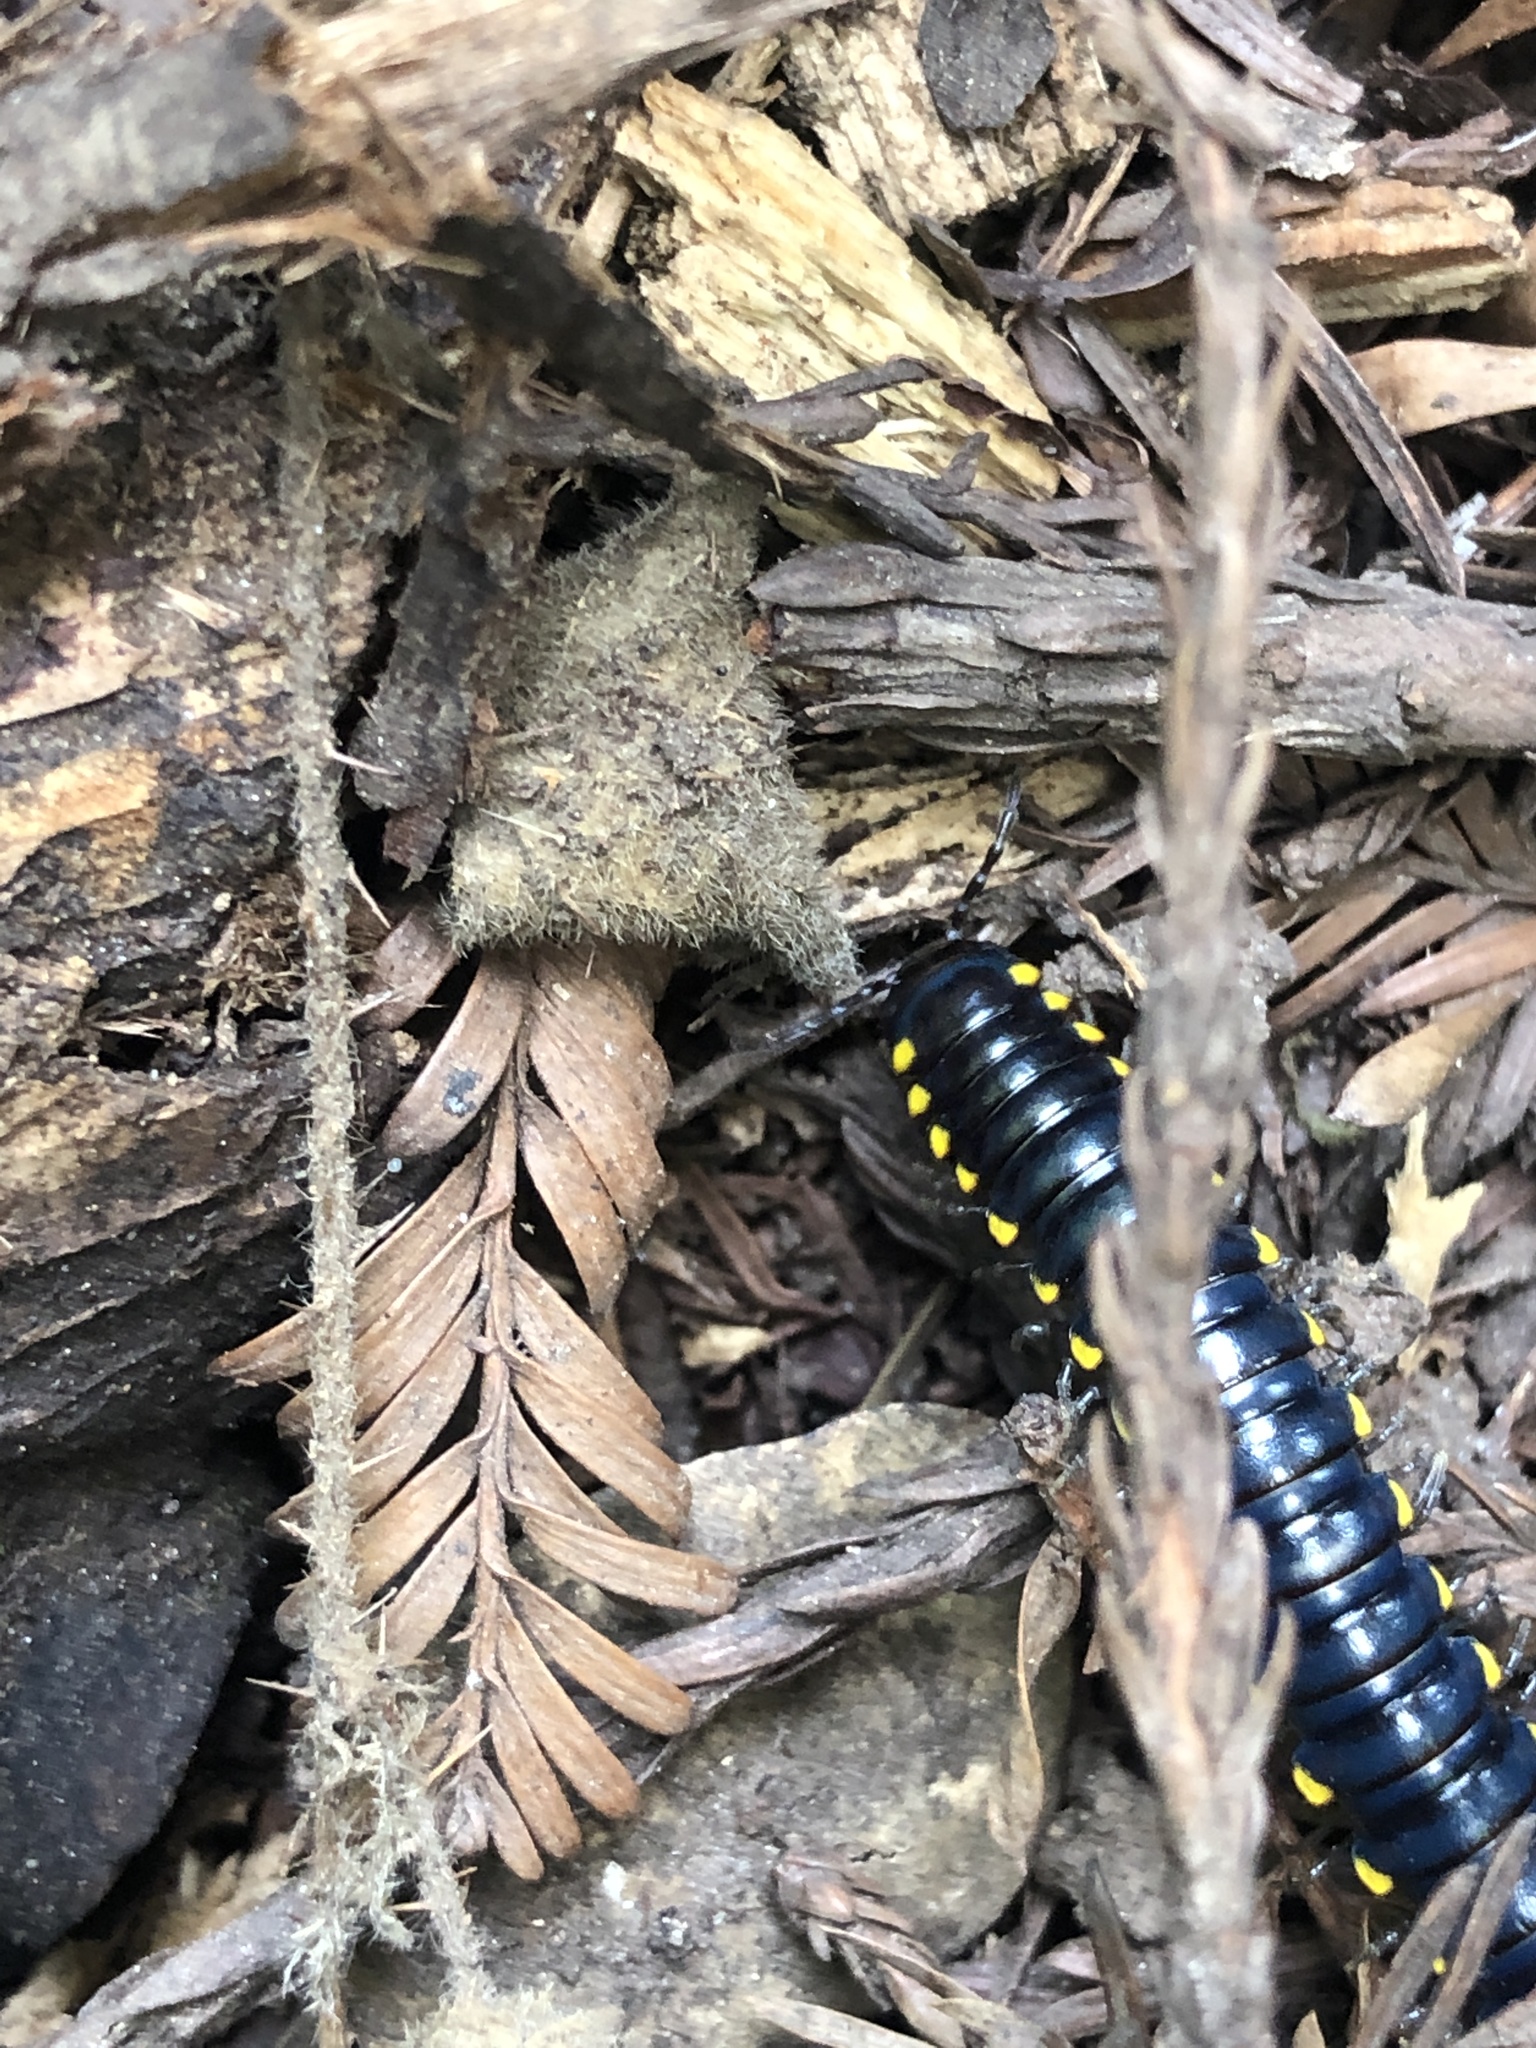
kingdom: Animalia
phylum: Arthropoda
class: Diplopoda
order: Polydesmida
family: Xystodesmidae
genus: Harpaphe
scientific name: Harpaphe haydeniana
